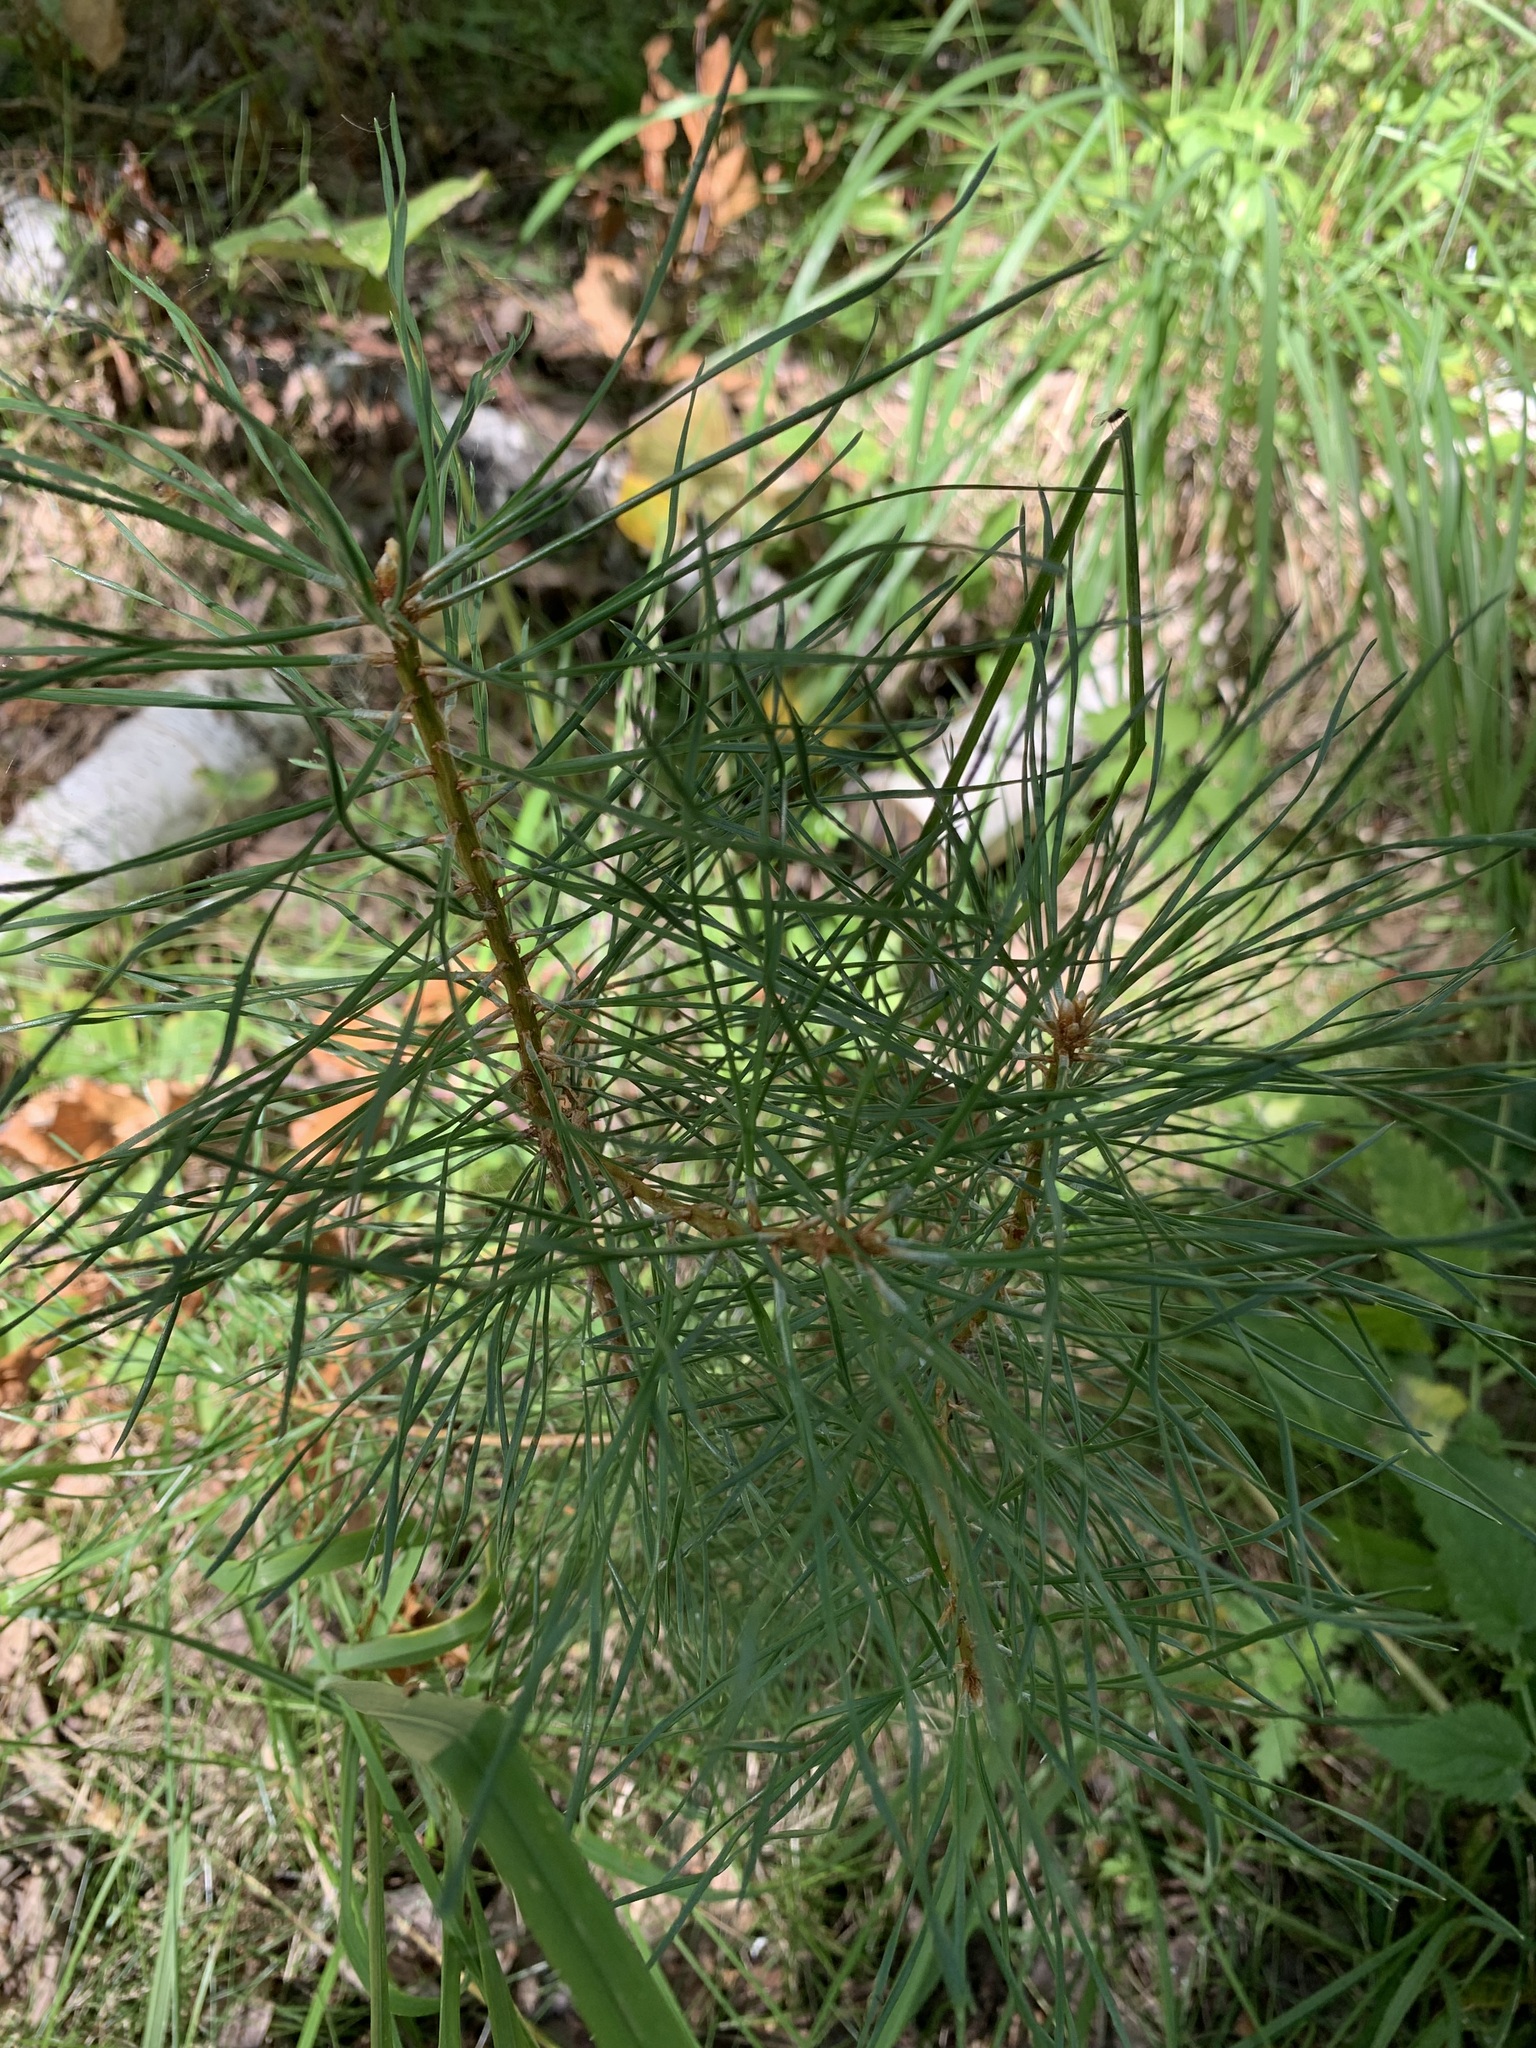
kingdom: Plantae
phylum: Tracheophyta
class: Pinopsida
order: Pinales
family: Pinaceae
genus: Pinus
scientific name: Pinus sylvestris
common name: Scots pine
